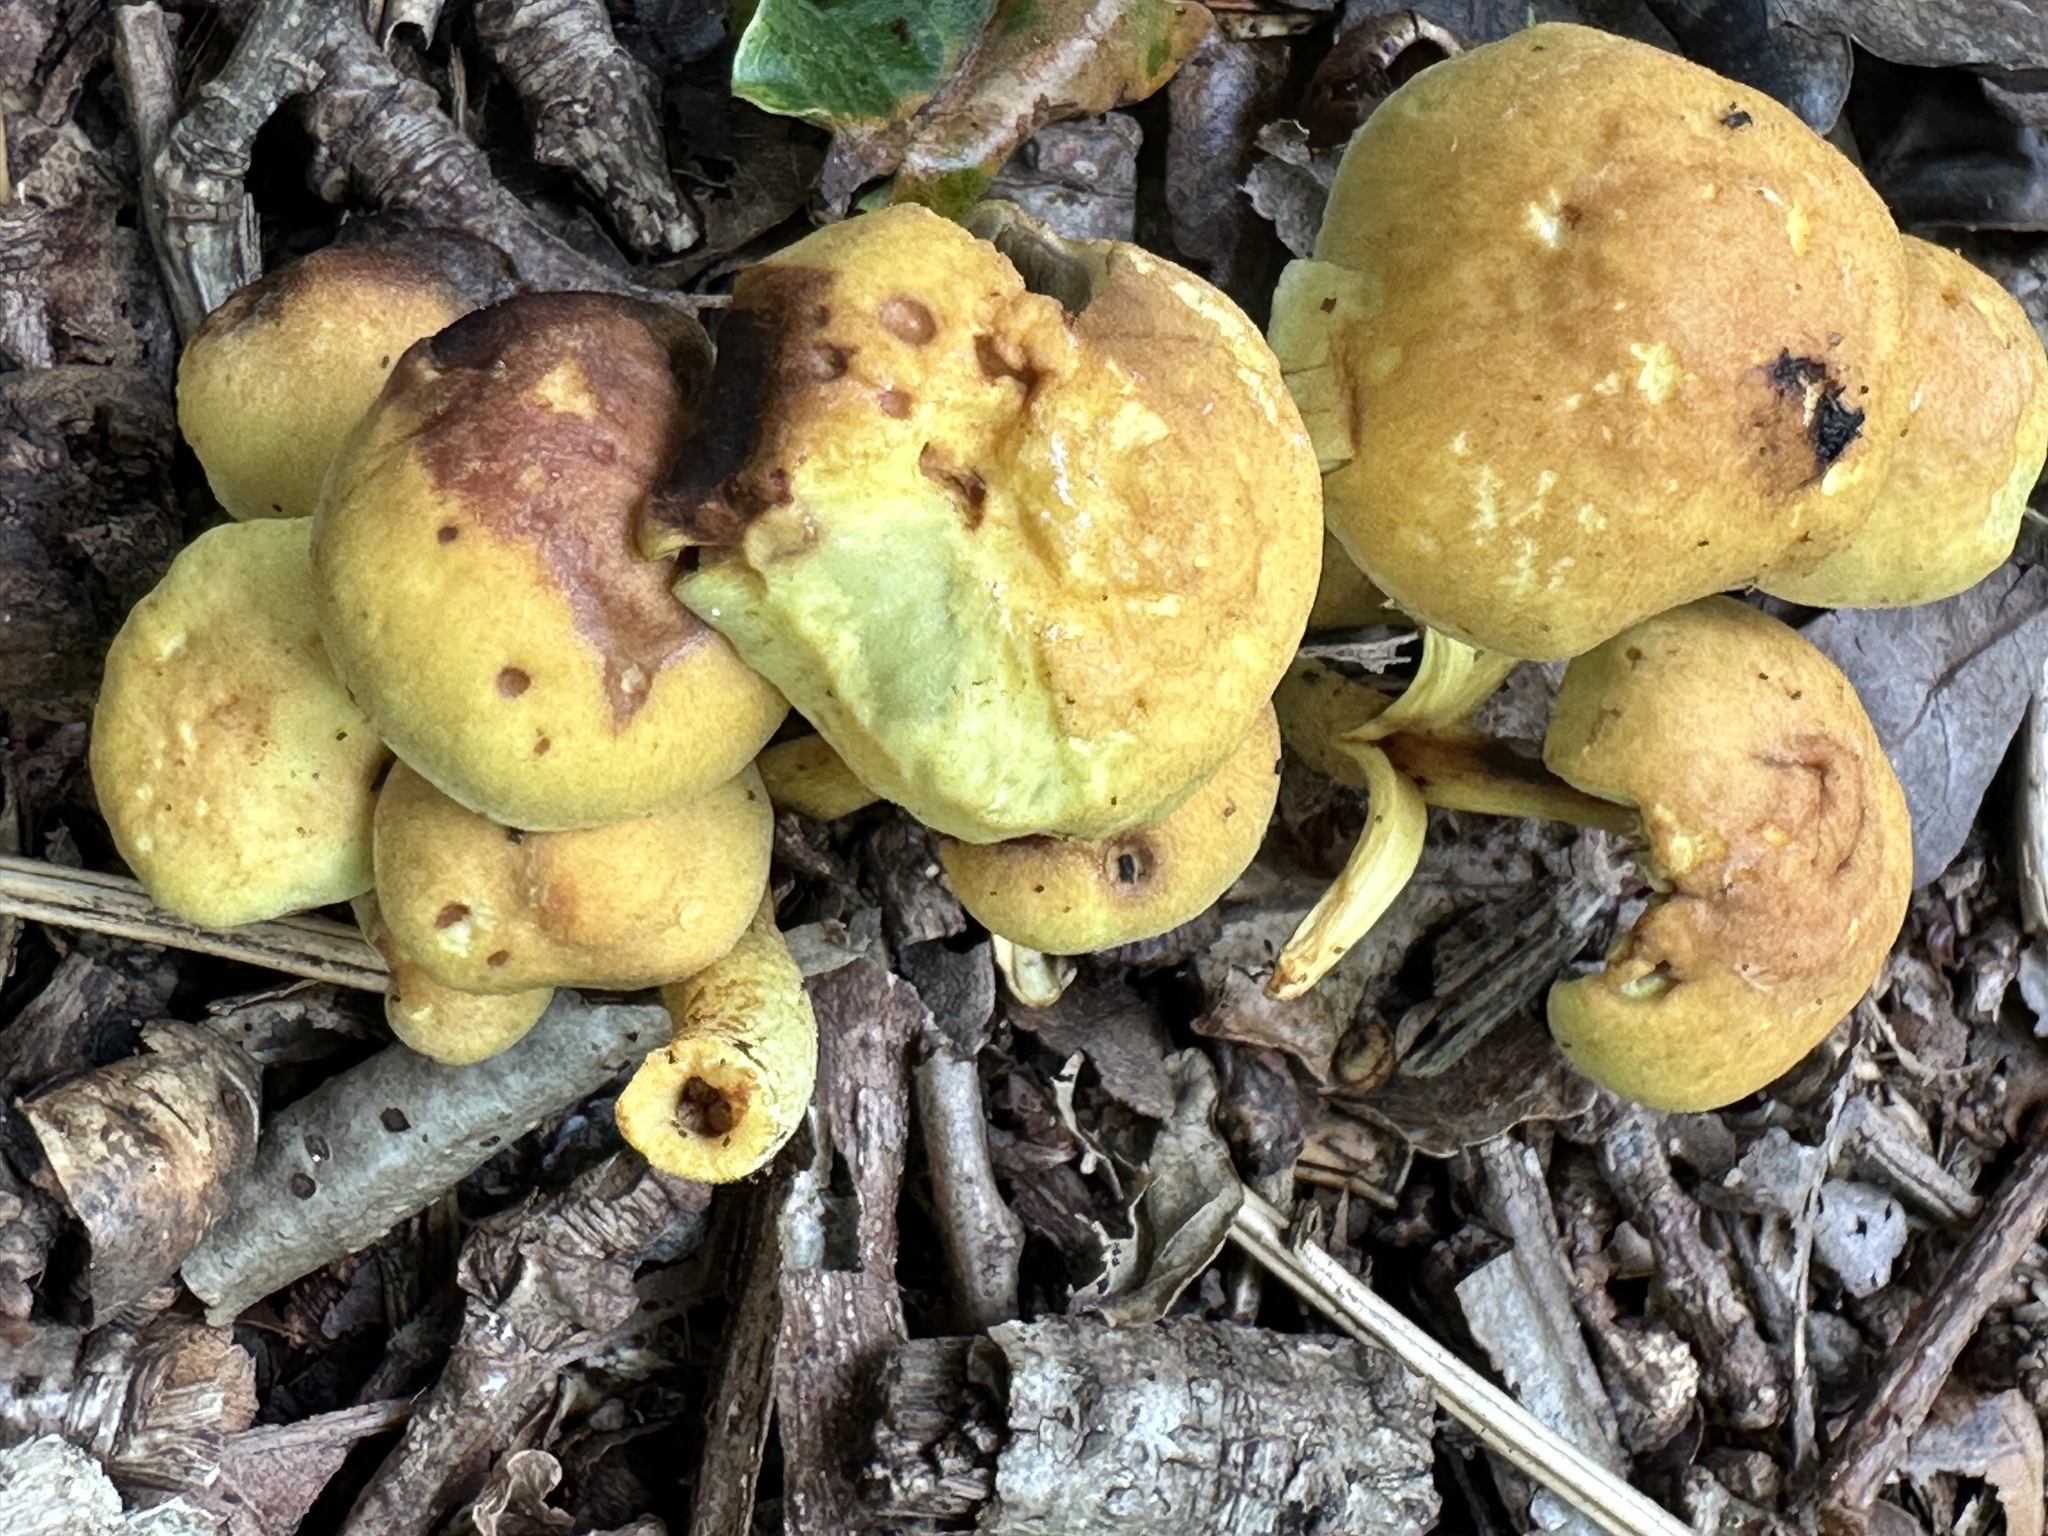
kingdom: Fungi
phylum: Basidiomycota
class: Agaricomycetes
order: Agaricales
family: Strophariaceae
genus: Hypholoma
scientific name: Hypholoma fasciculare
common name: Sulphur tuft
